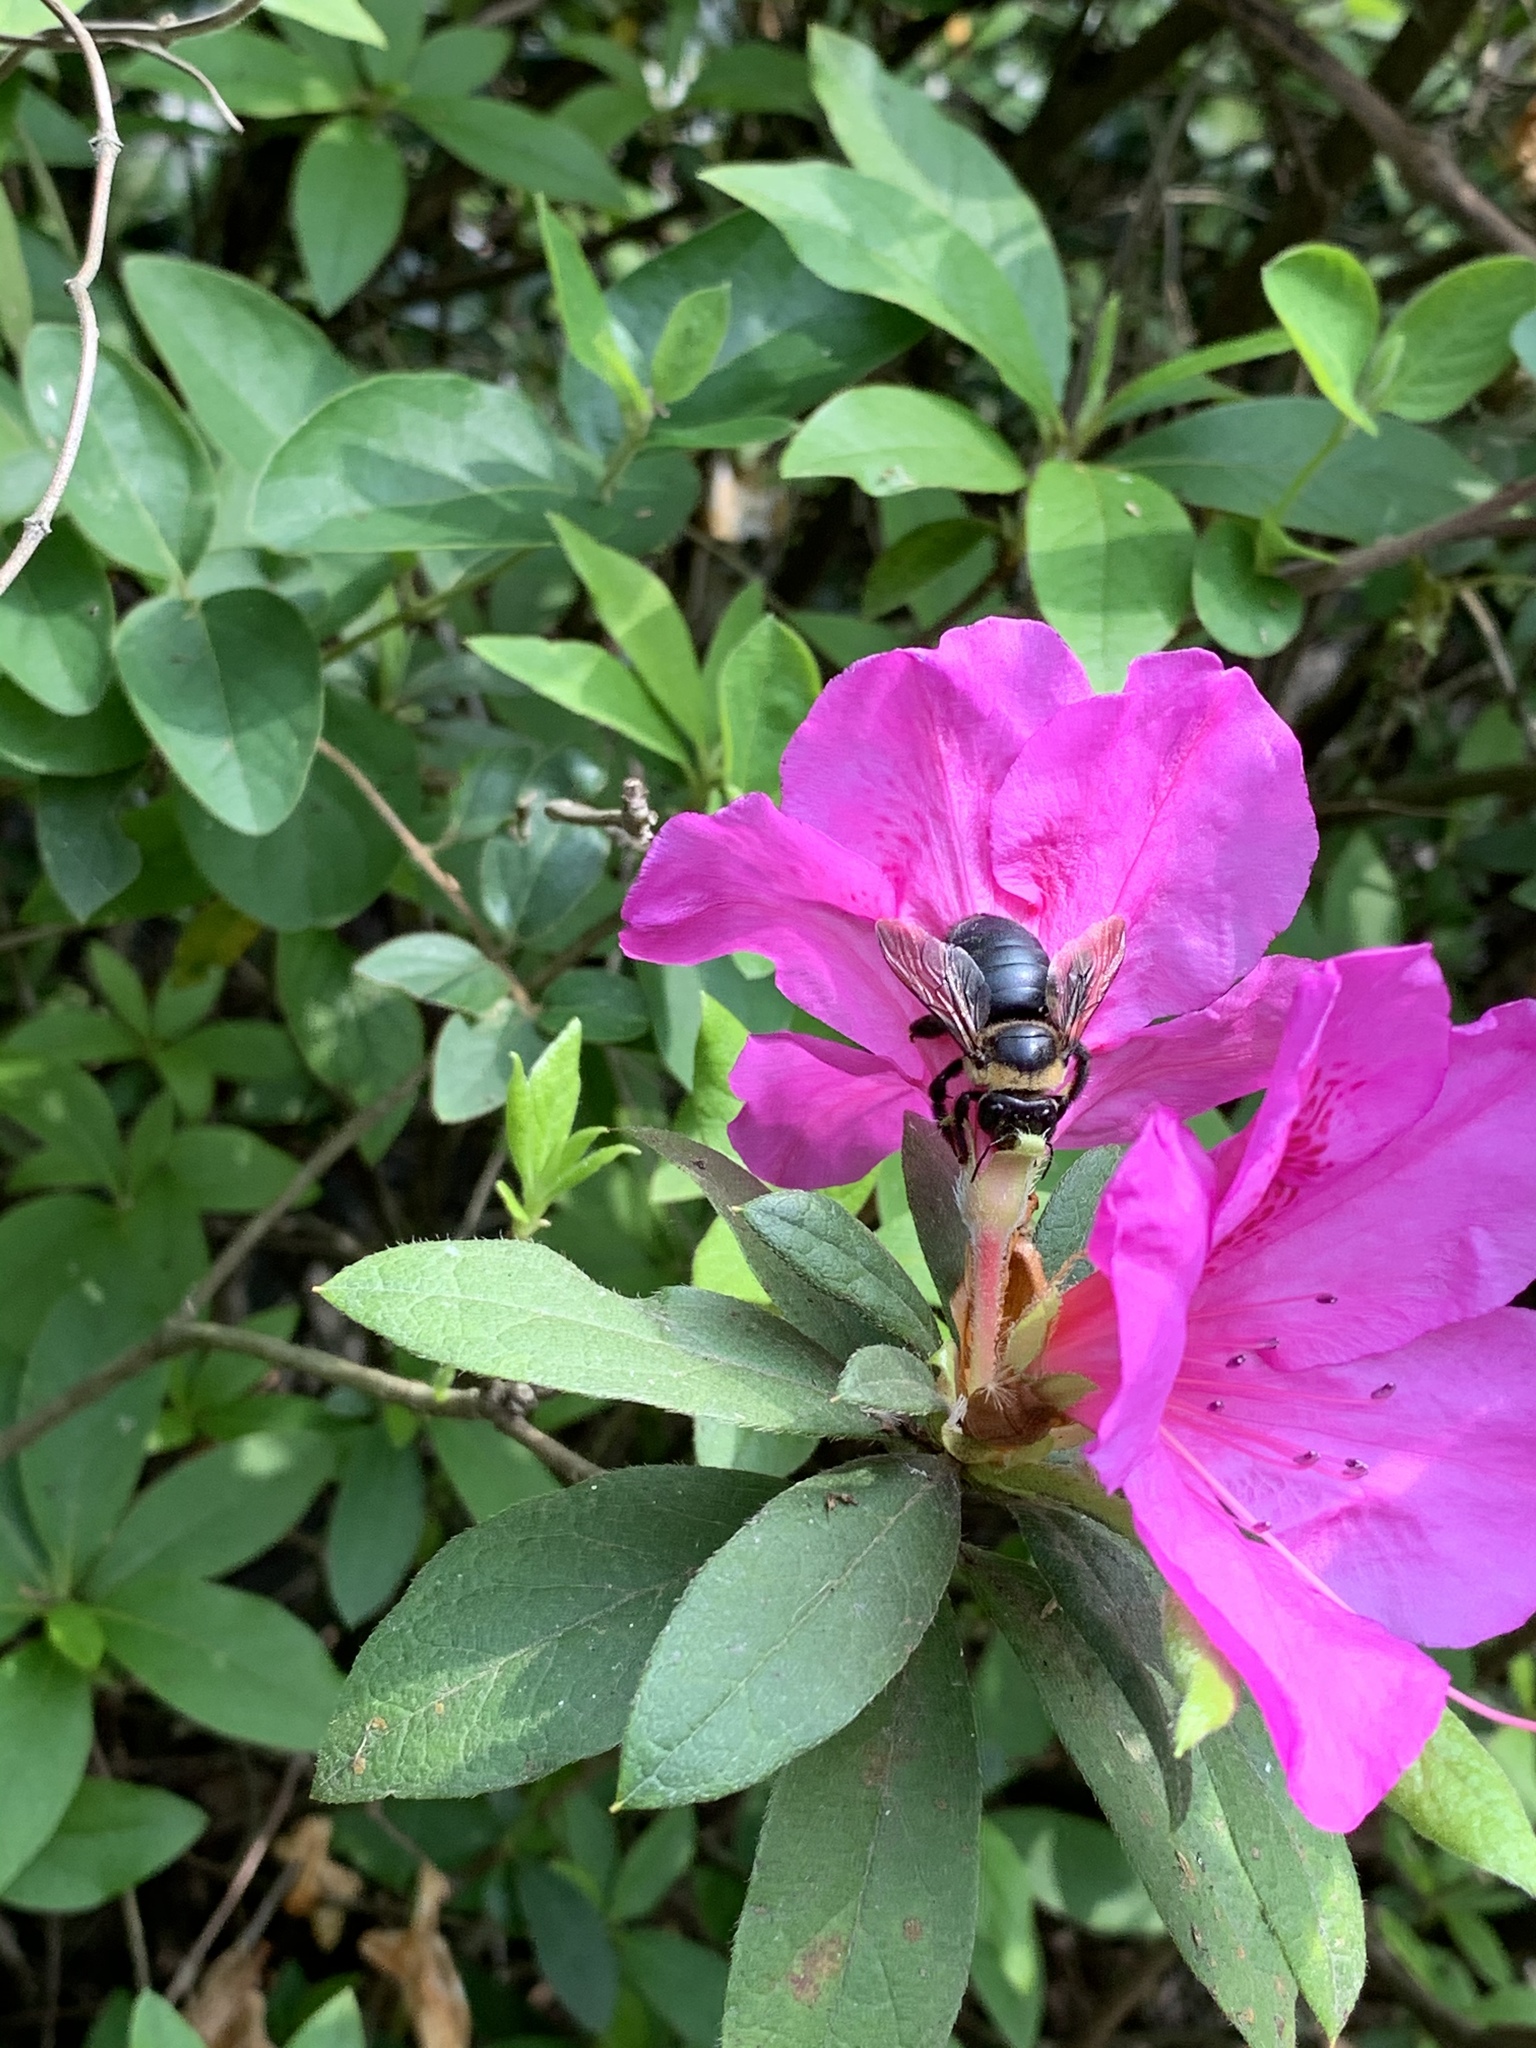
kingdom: Animalia
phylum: Arthropoda
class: Insecta
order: Hymenoptera
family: Apidae
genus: Xylocopa
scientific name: Xylocopa dejeanii
